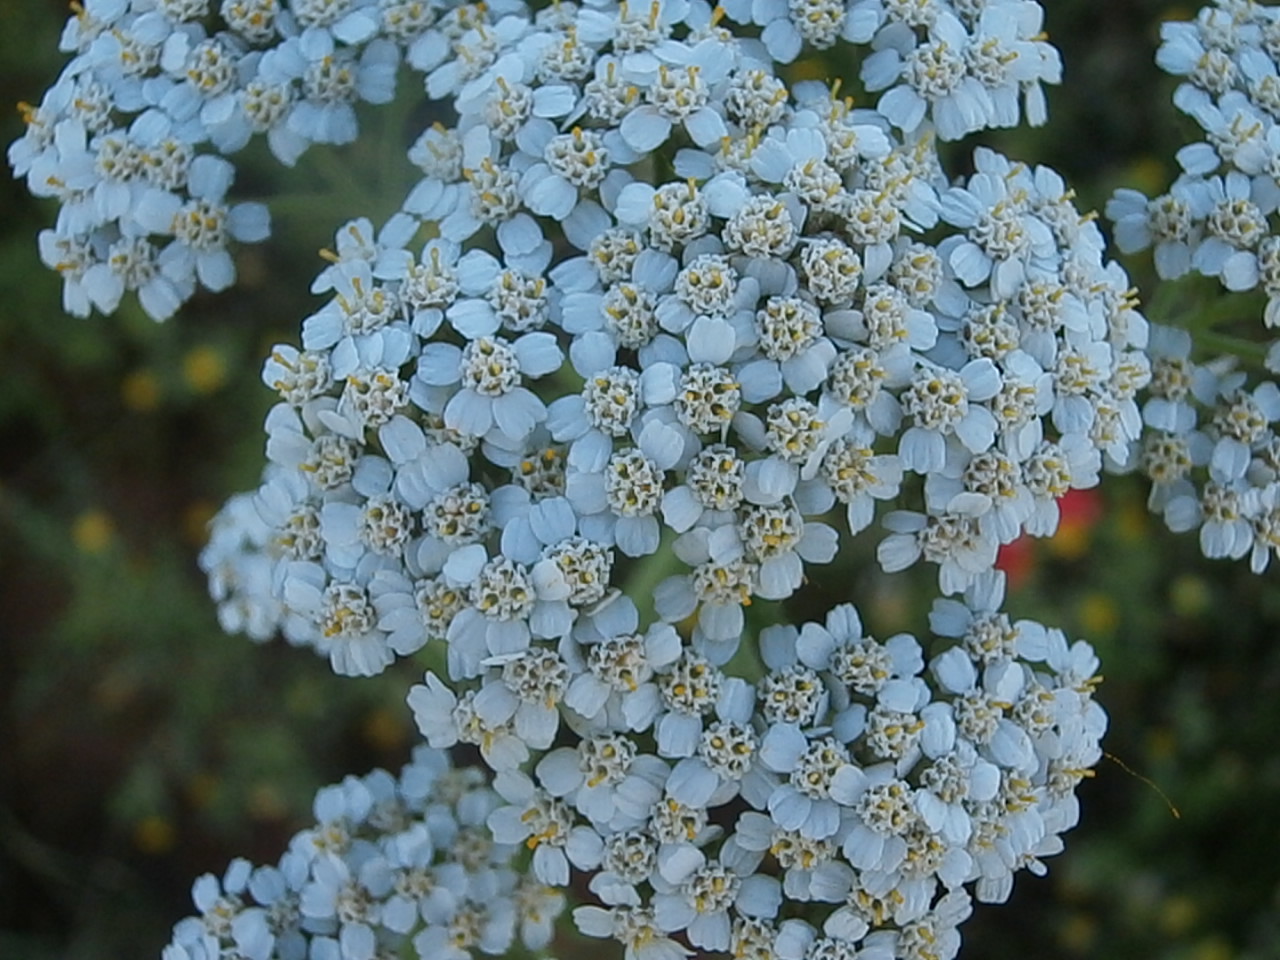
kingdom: Plantae
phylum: Tracheophyta
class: Magnoliopsida
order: Asterales
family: Asteraceae
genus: Achillea
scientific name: Achillea millefolium
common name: Yarrow
